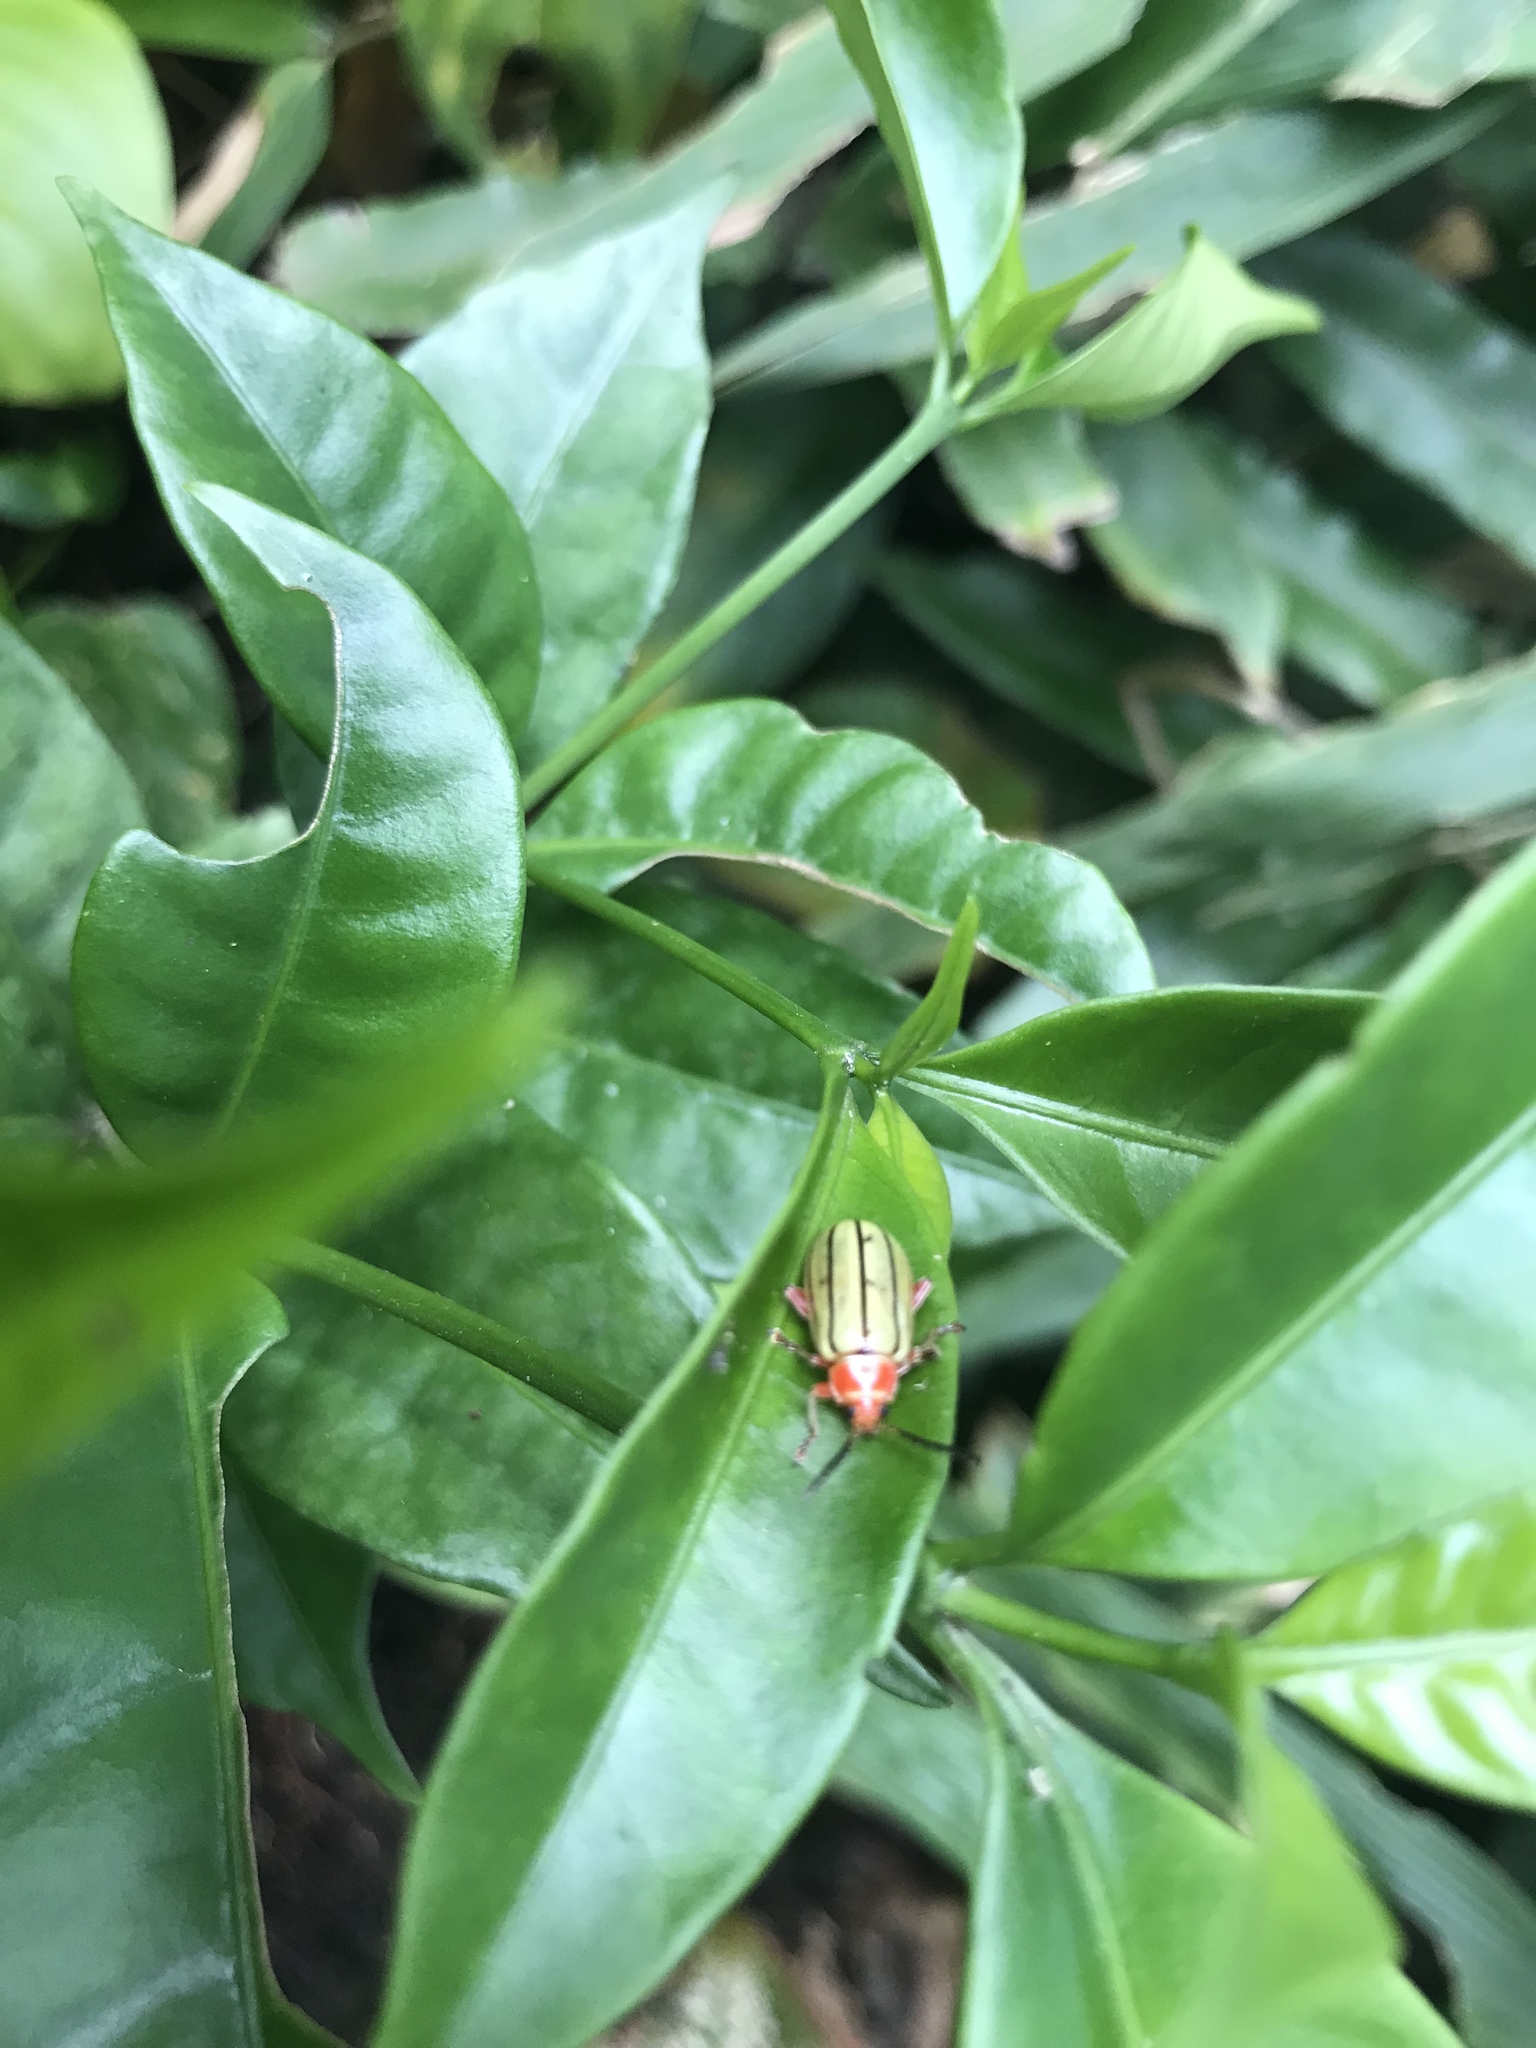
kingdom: Animalia
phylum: Arthropoda
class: Insecta
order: Coleoptera
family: Chrysomelidae
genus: Disonycha
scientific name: Disonycha
